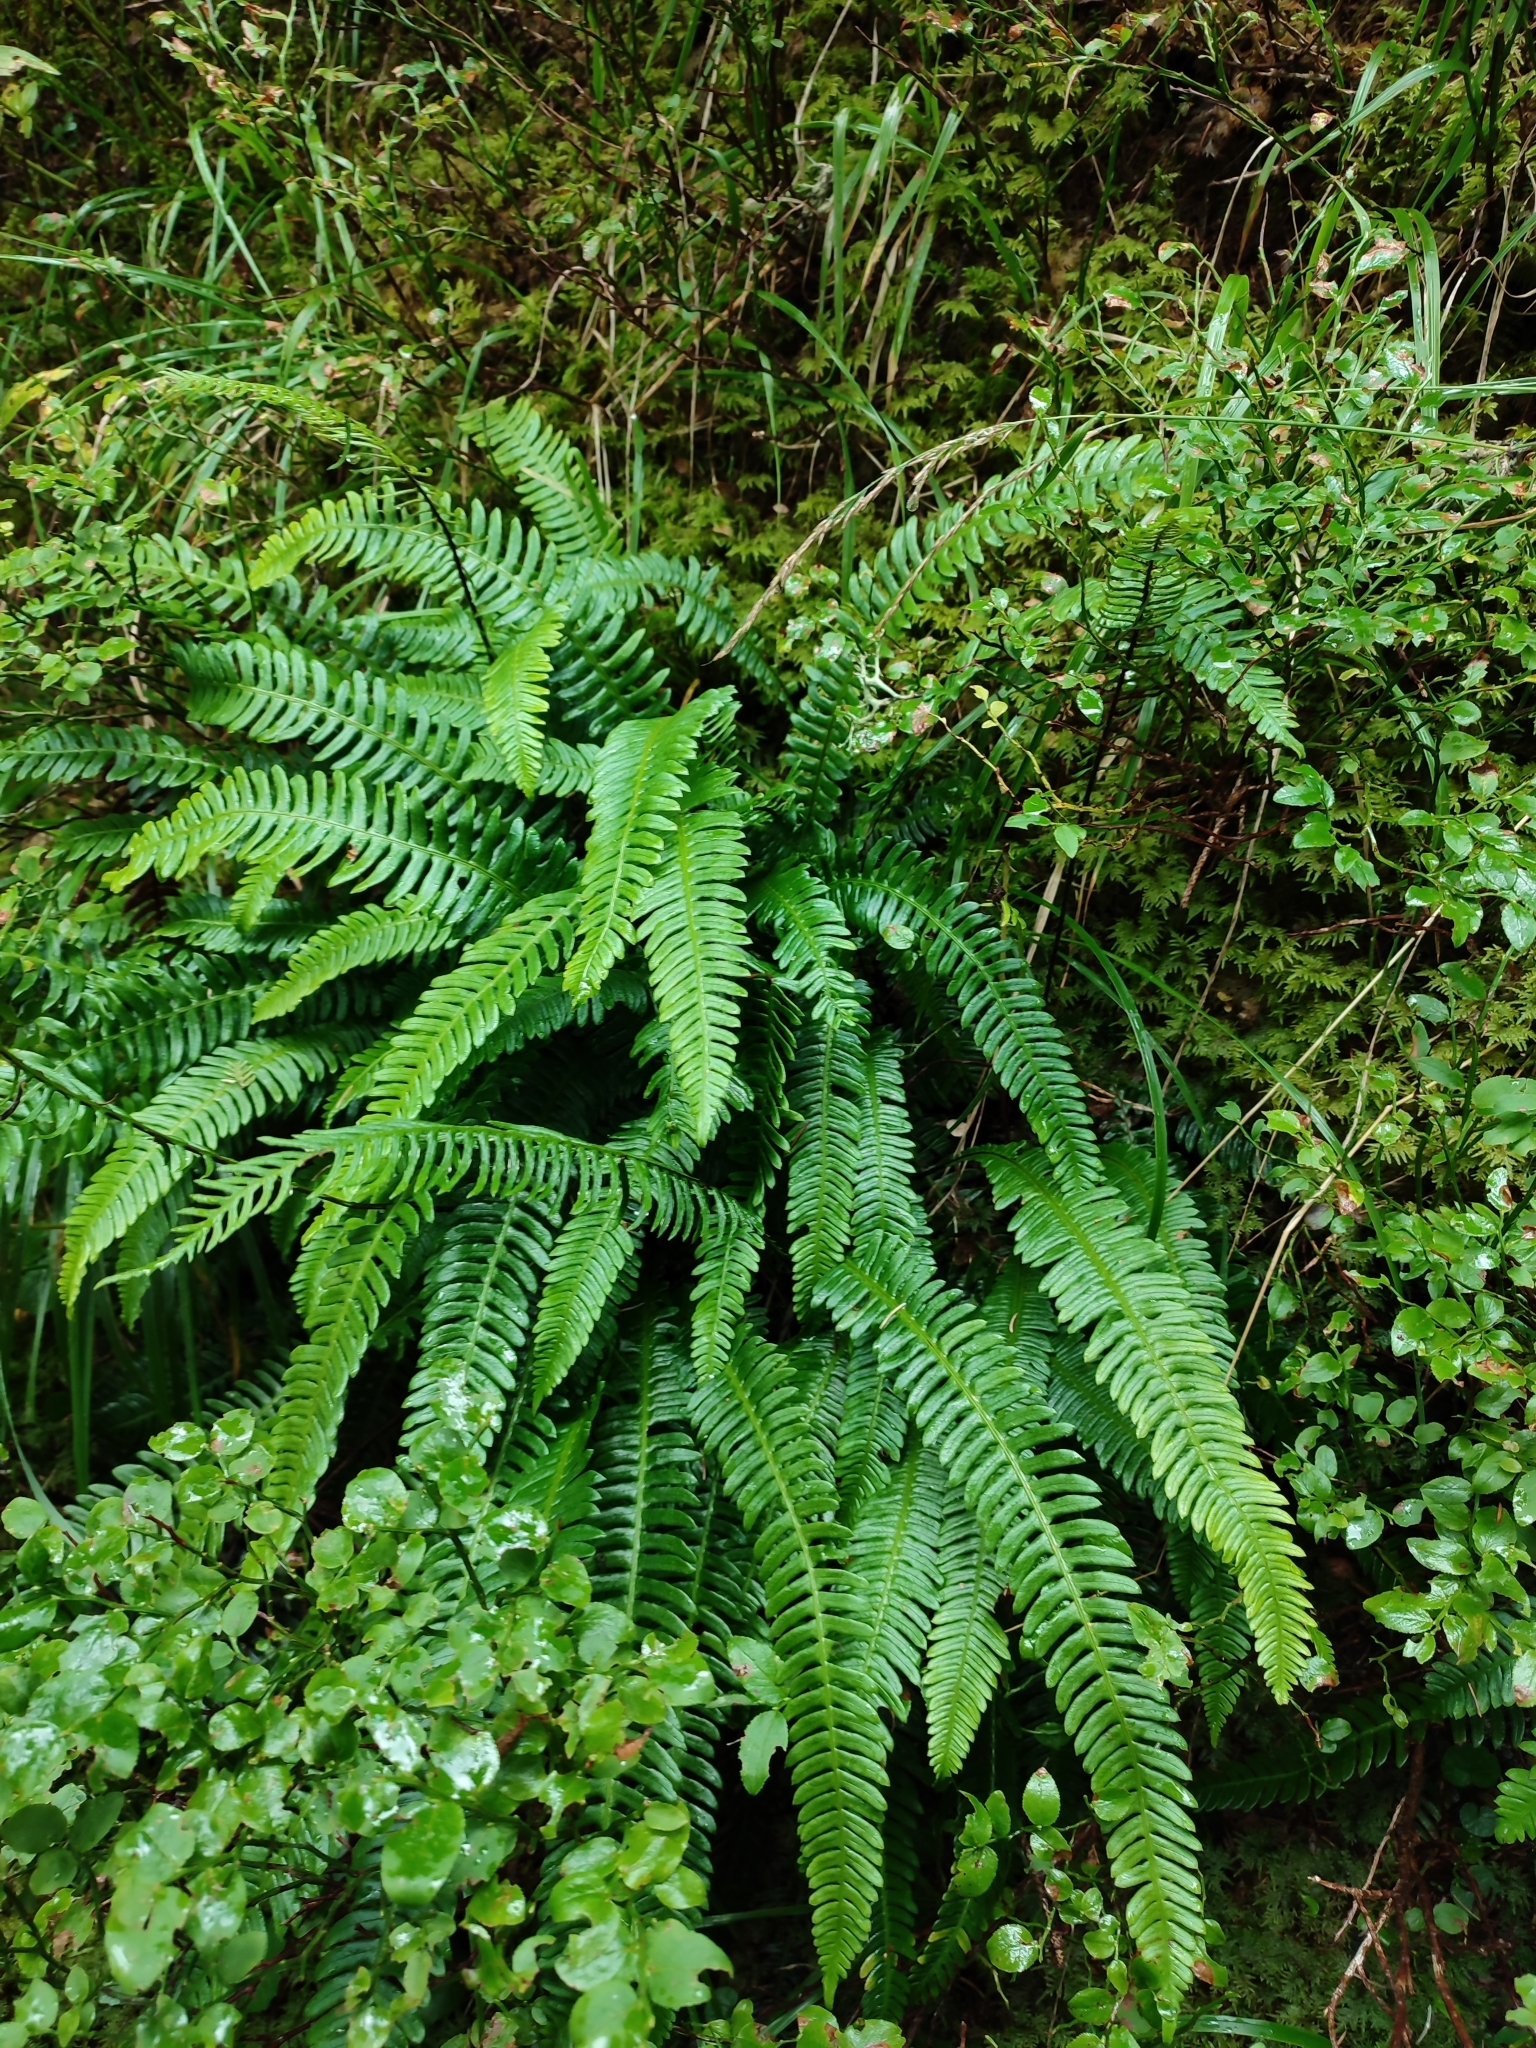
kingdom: Plantae
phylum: Tracheophyta
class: Polypodiopsida
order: Polypodiales
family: Blechnaceae
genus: Struthiopteris
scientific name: Struthiopteris spicant
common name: Deer fern
